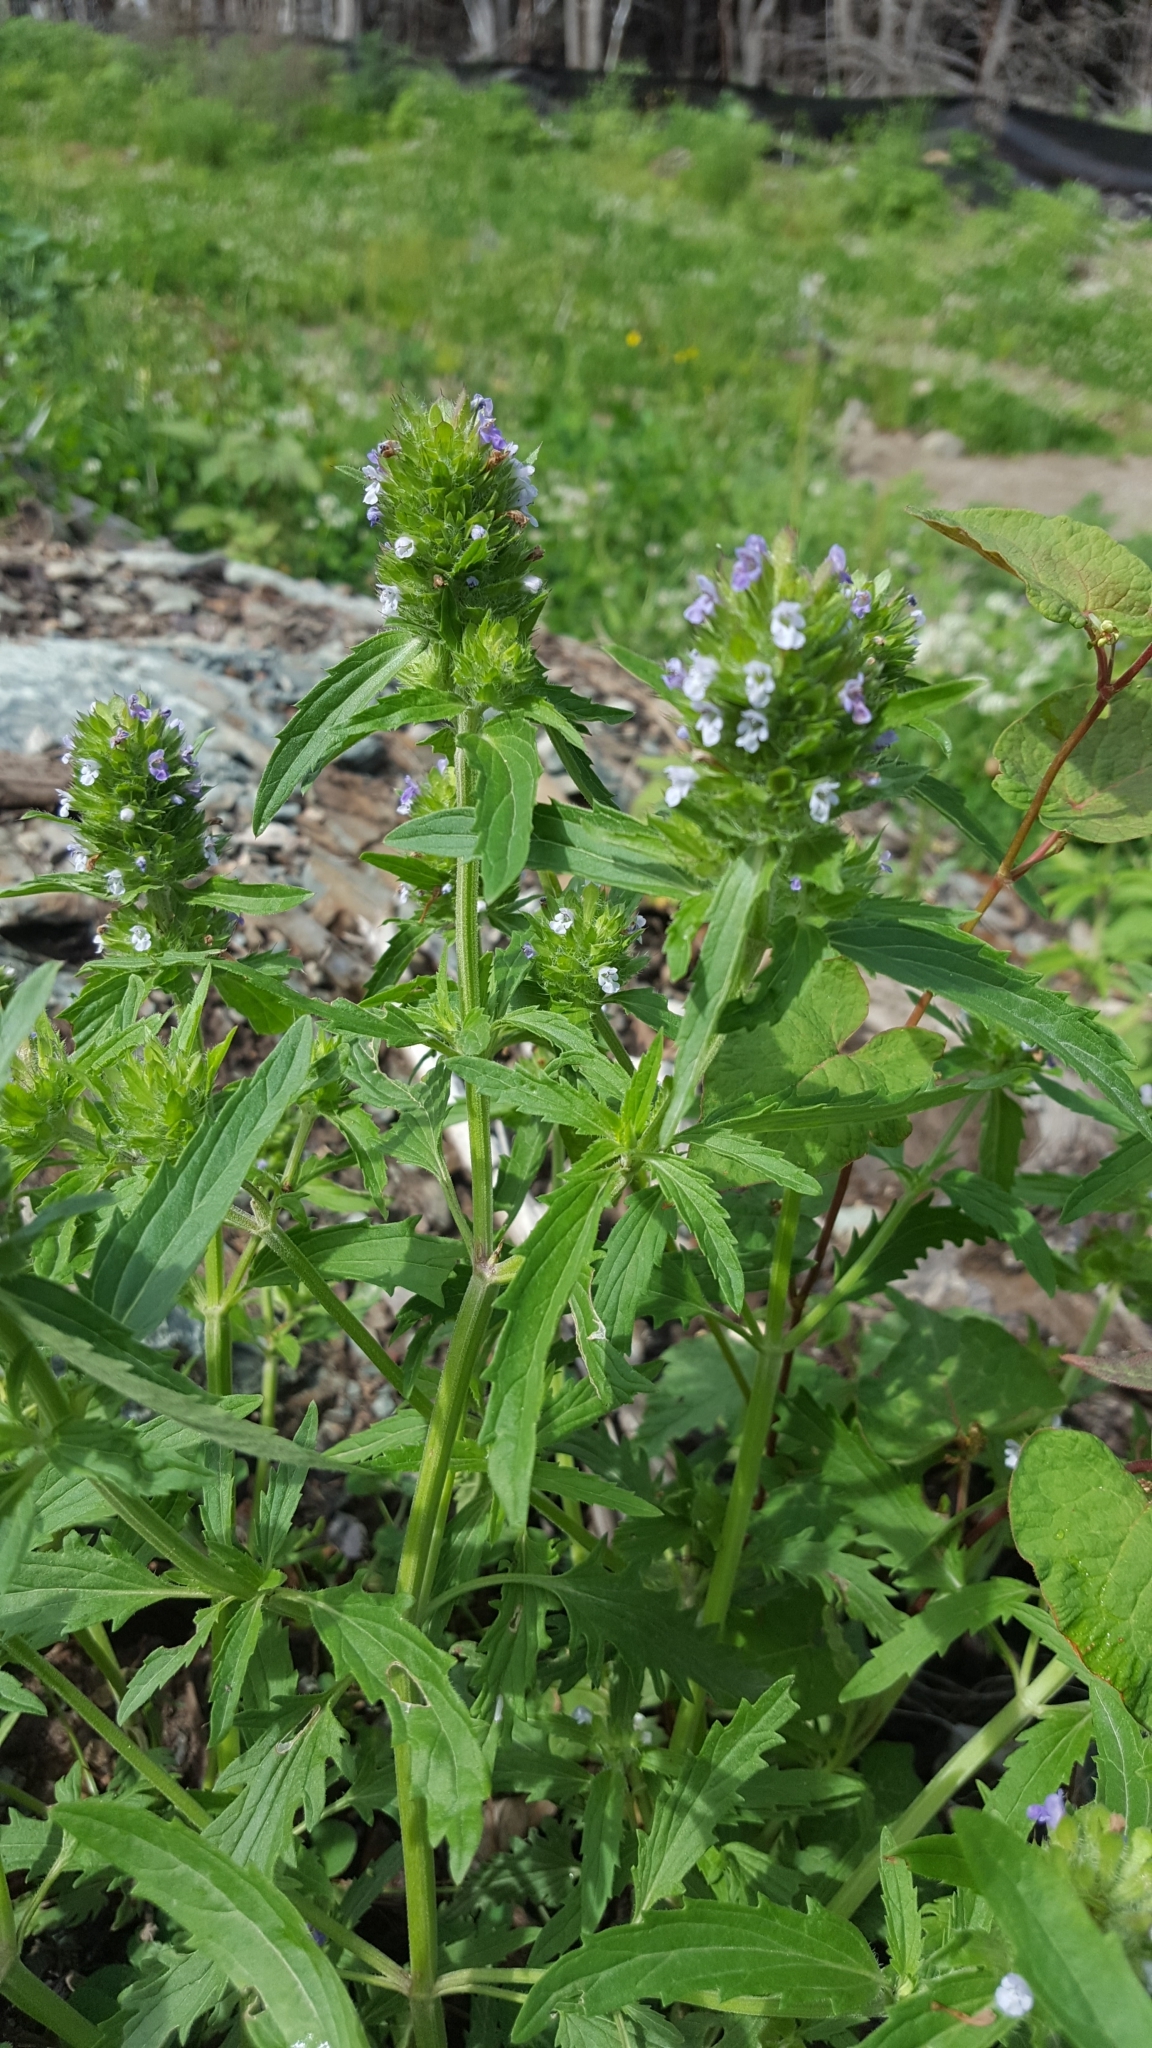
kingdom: Plantae
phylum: Tracheophyta
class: Magnoliopsida
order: Lamiales
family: Lamiaceae
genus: Dracocephalum
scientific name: Dracocephalum parviflorum
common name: American dragonhead
